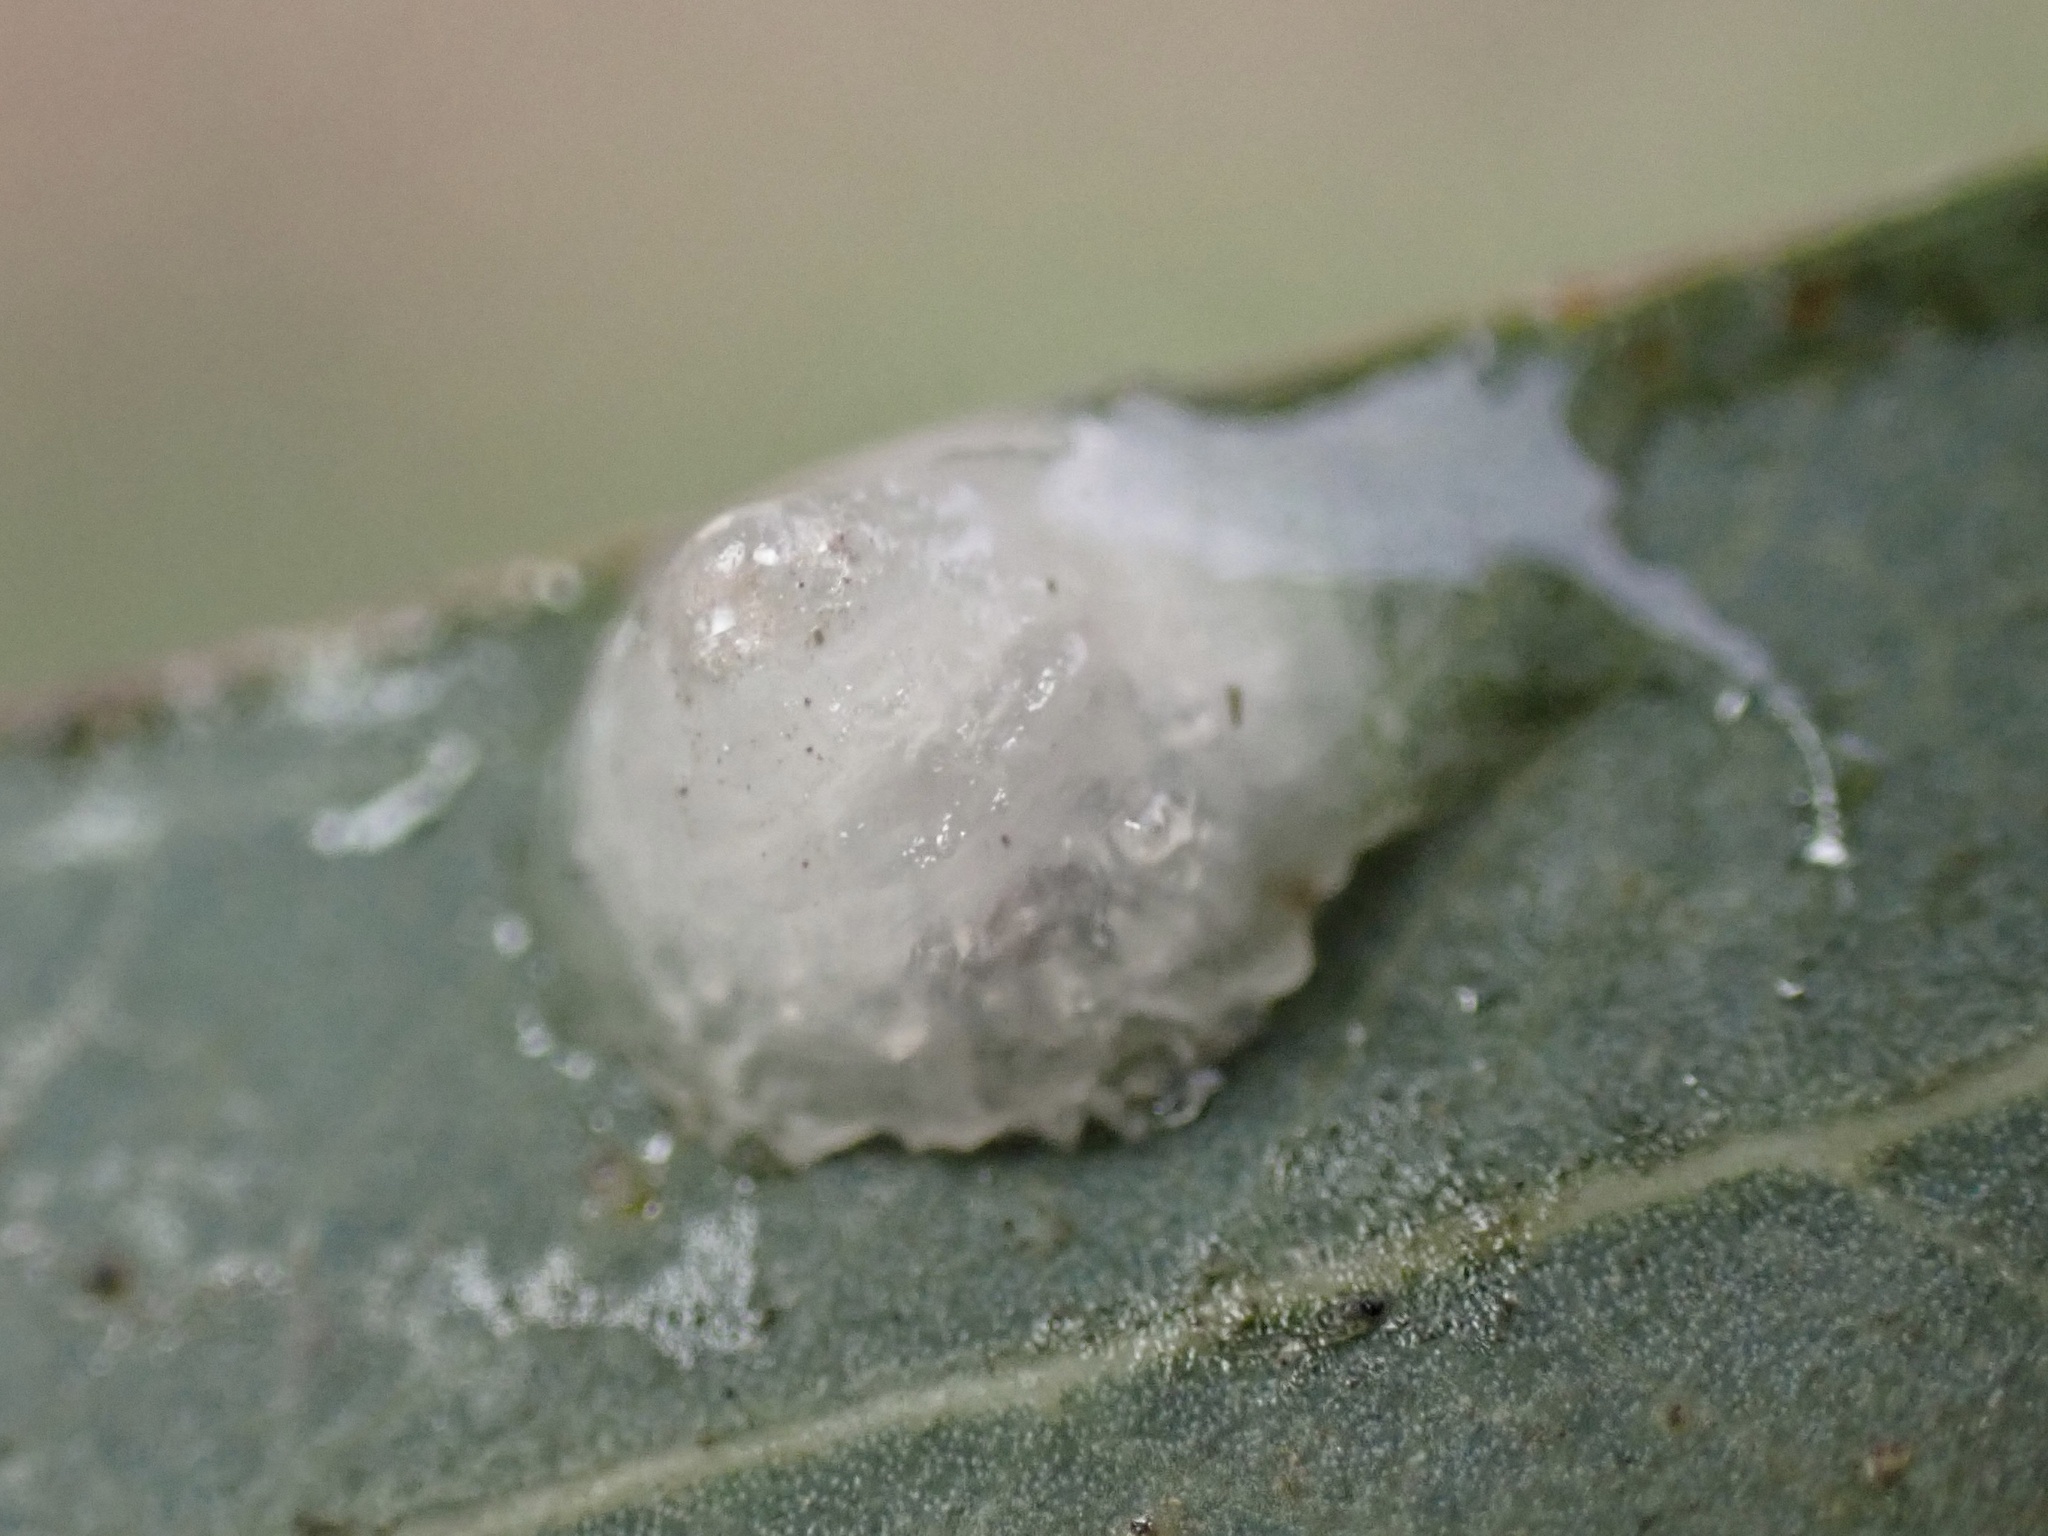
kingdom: Animalia
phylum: Arthropoda
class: Insecta
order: Hemiptera
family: Aphalaridae
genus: Glycaspis
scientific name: Glycaspis brimblecombei
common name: Red gum lerp psyllid
